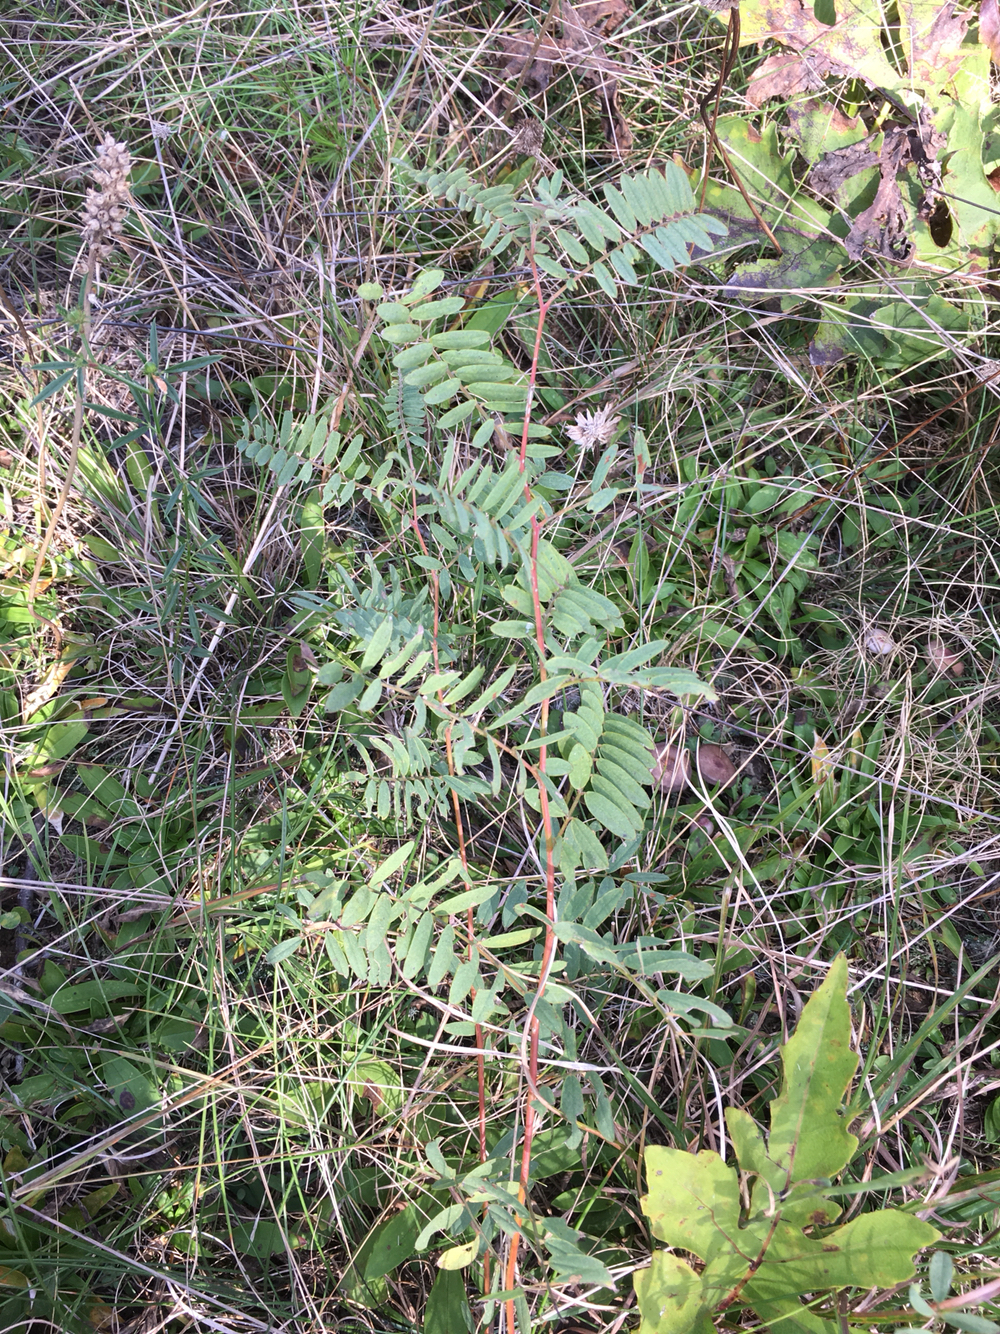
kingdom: Plantae
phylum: Tracheophyta
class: Magnoliopsida
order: Fabales
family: Fabaceae
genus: Tephrosia
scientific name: Tephrosia virginiana
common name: Rabbit-pea
